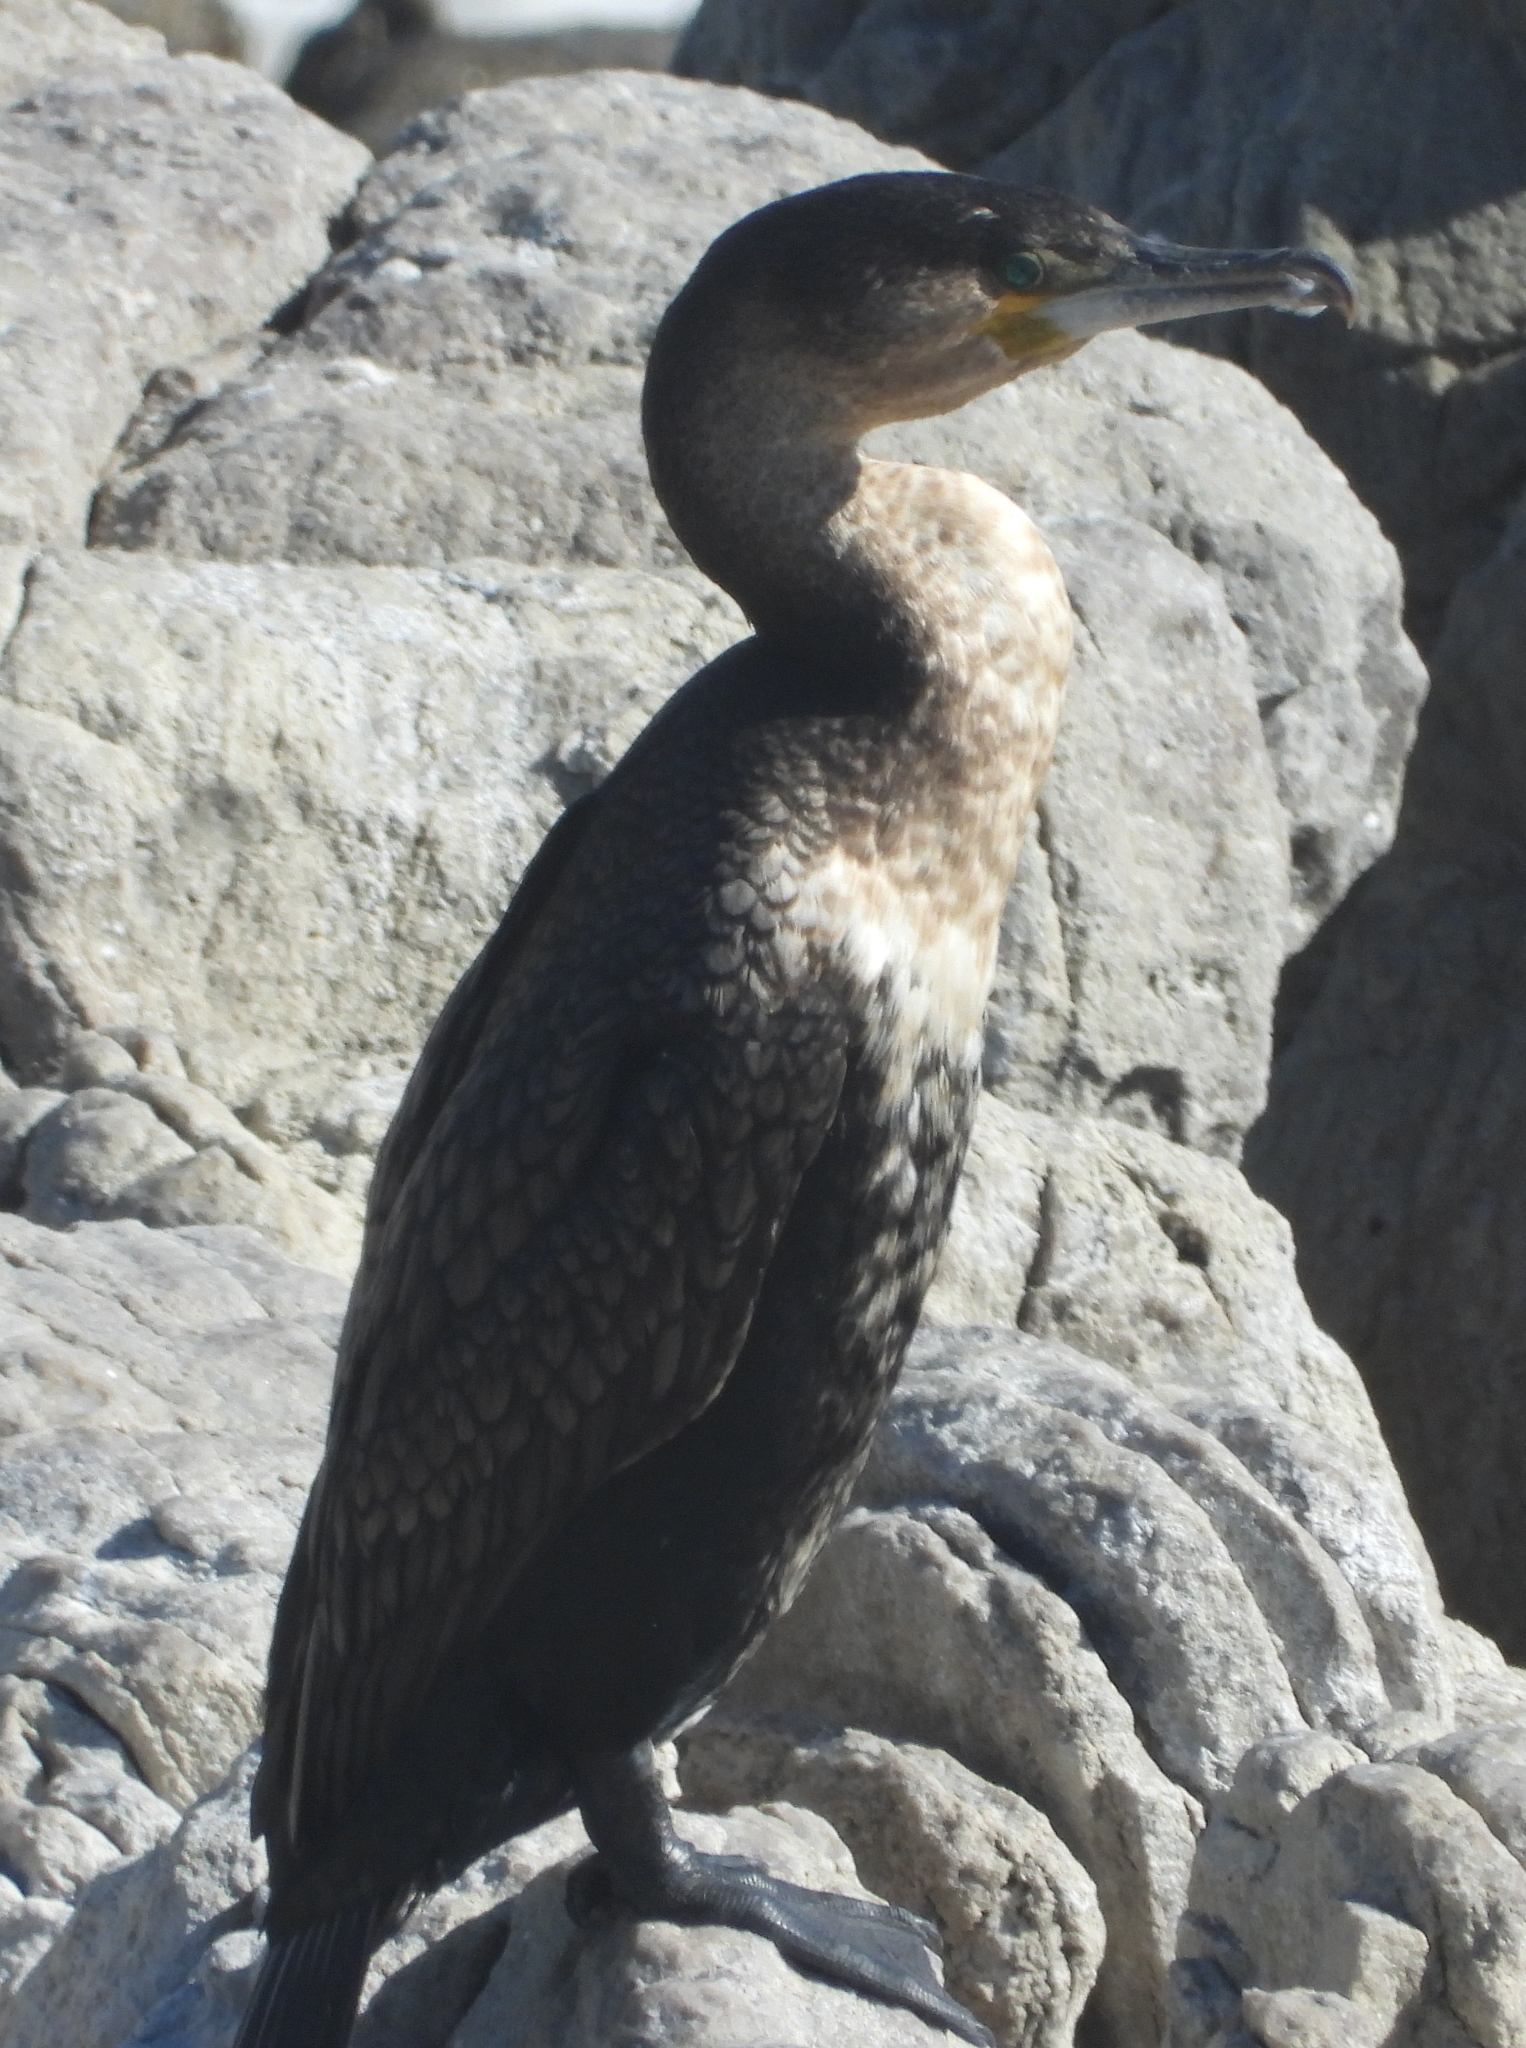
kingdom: Animalia
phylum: Chordata
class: Aves
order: Suliformes
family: Phalacrocoracidae
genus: Phalacrocorax
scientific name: Phalacrocorax carbo
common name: Great cormorant
